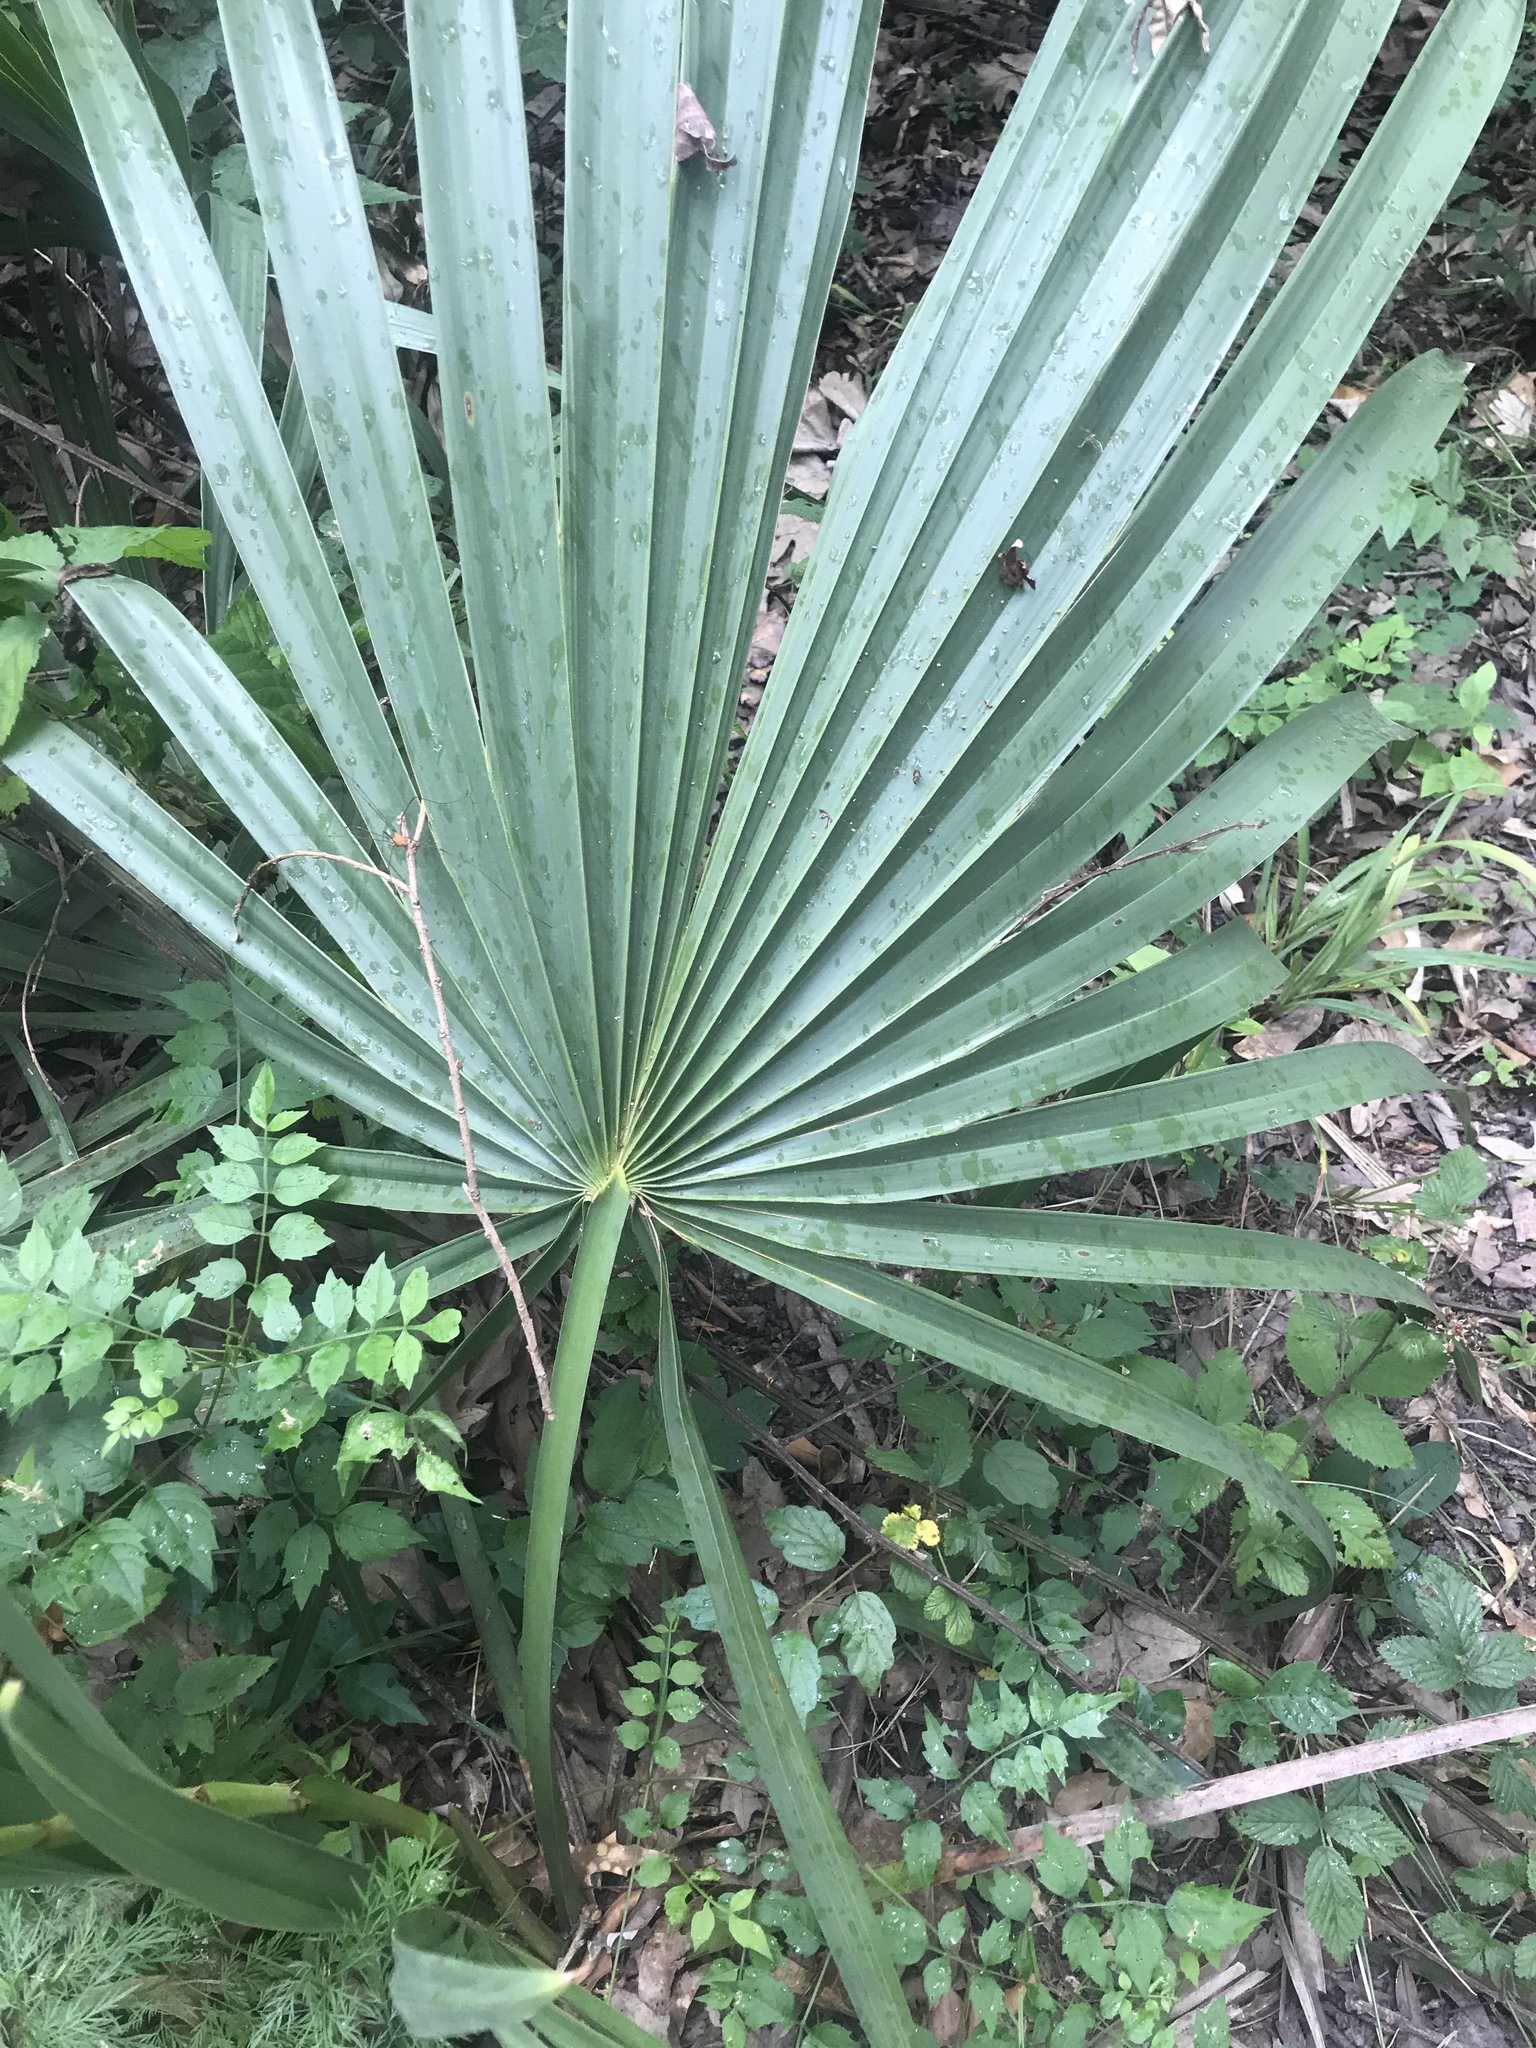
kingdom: Plantae
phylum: Tracheophyta
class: Liliopsida
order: Arecales
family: Arecaceae
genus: Sabal
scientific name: Sabal minor
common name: Dwarf palmetto
